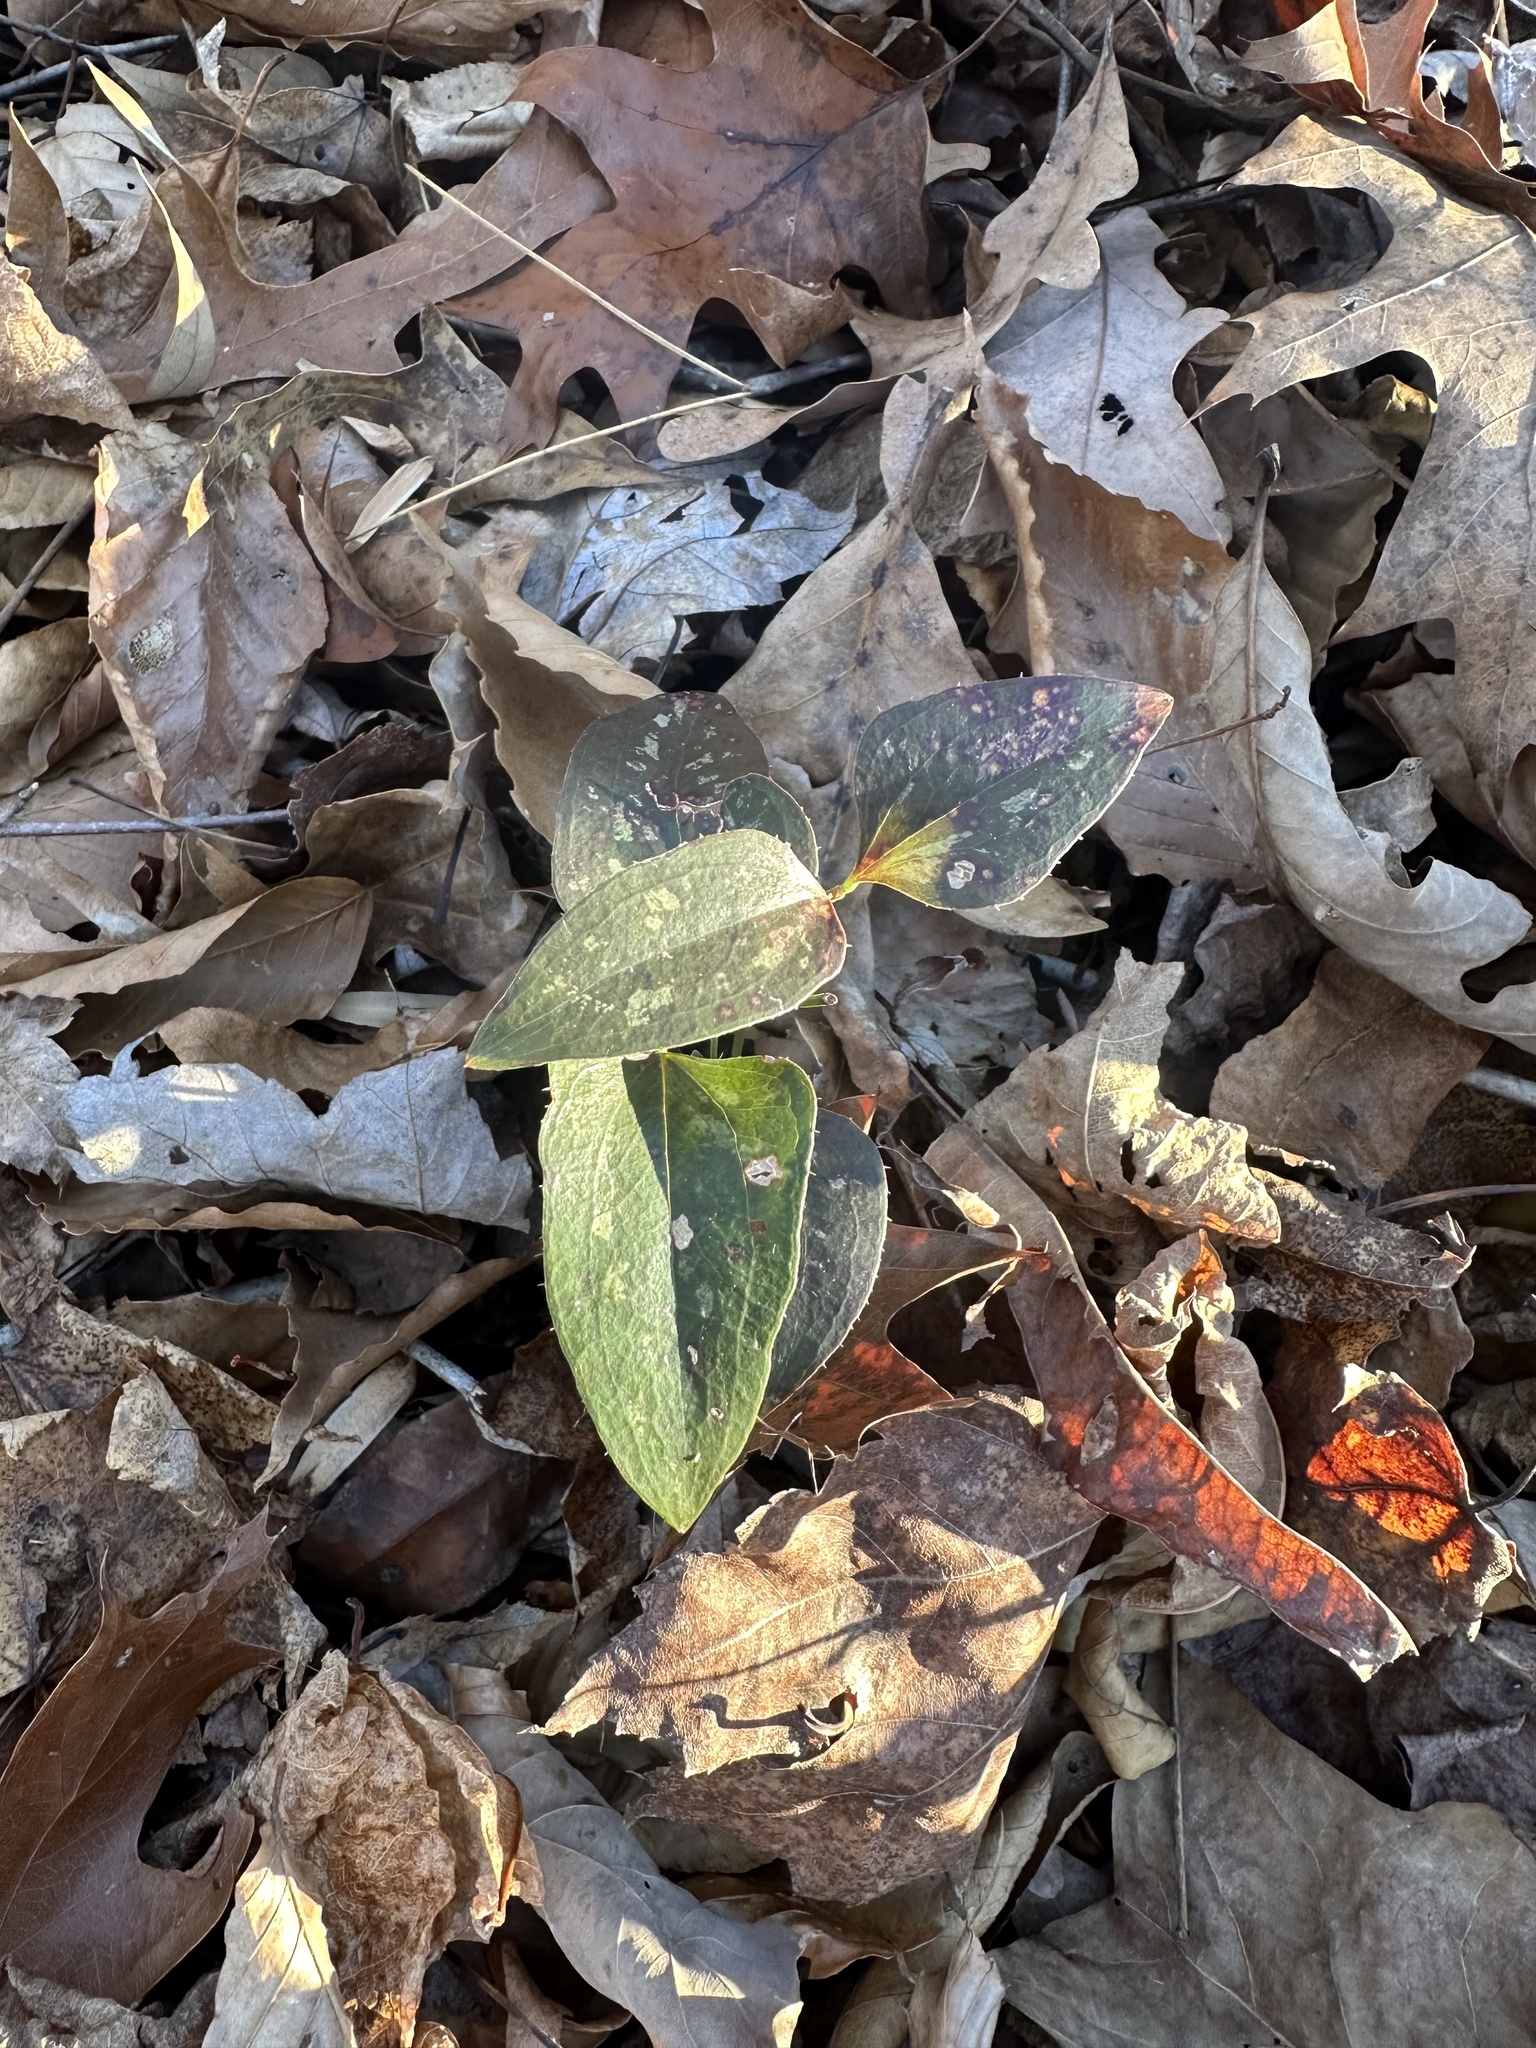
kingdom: Plantae
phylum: Tracheophyta
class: Liliopsida
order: Liliales
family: Smilacaceae
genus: Smilax
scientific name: Smilax bona-nox
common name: Catbrier
